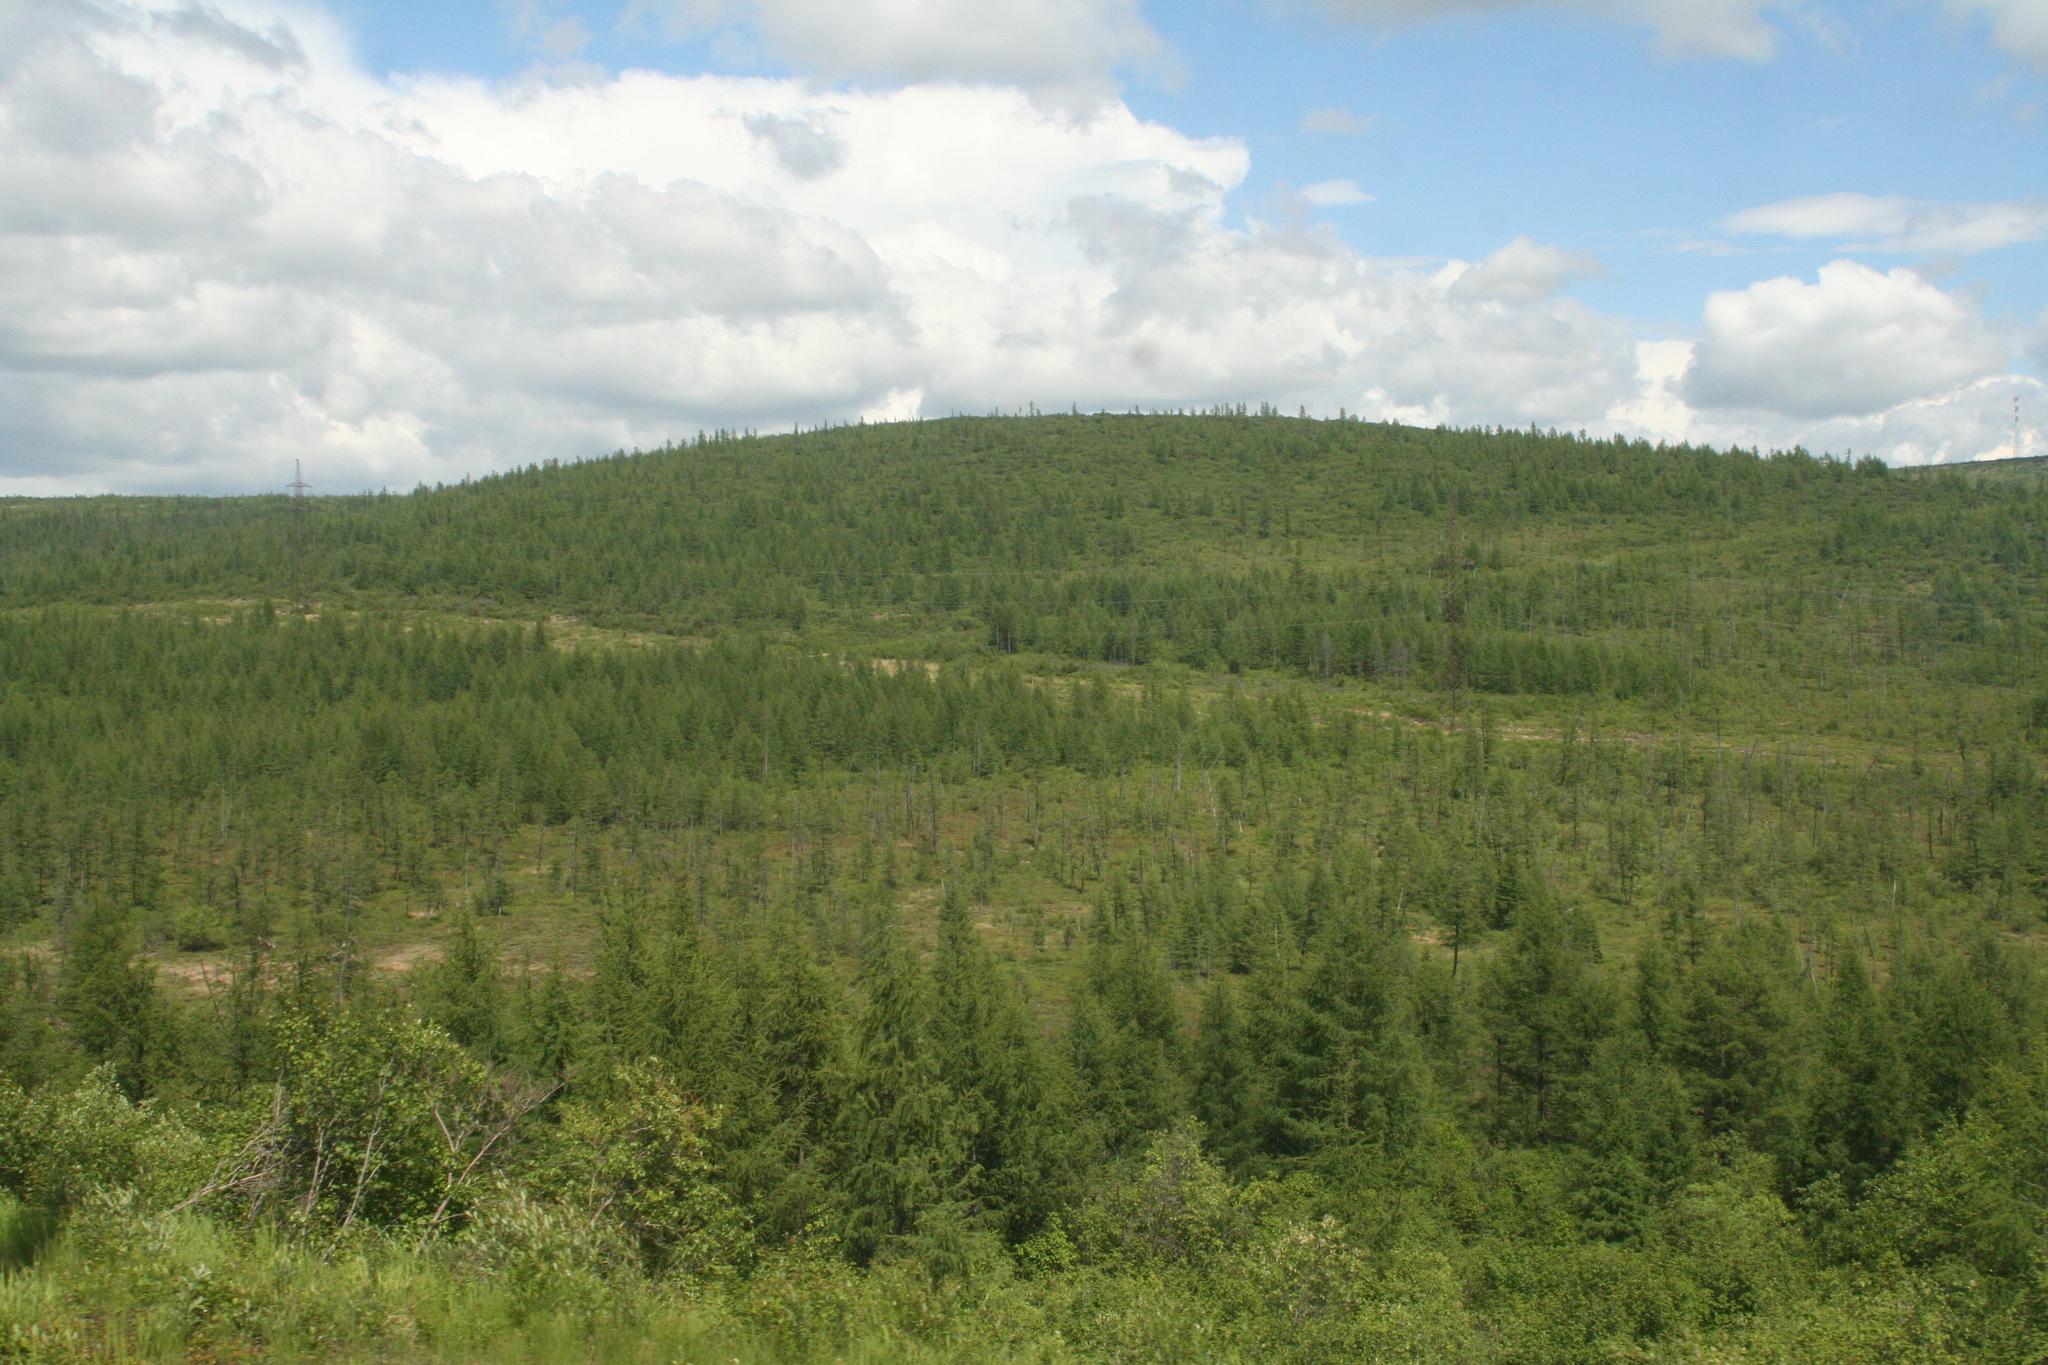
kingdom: Plantae
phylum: Tracheophyta
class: Pinopsida
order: Pinales
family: Pinaceae
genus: Larix
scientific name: Larix gmelinii
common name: Dahurian larch
